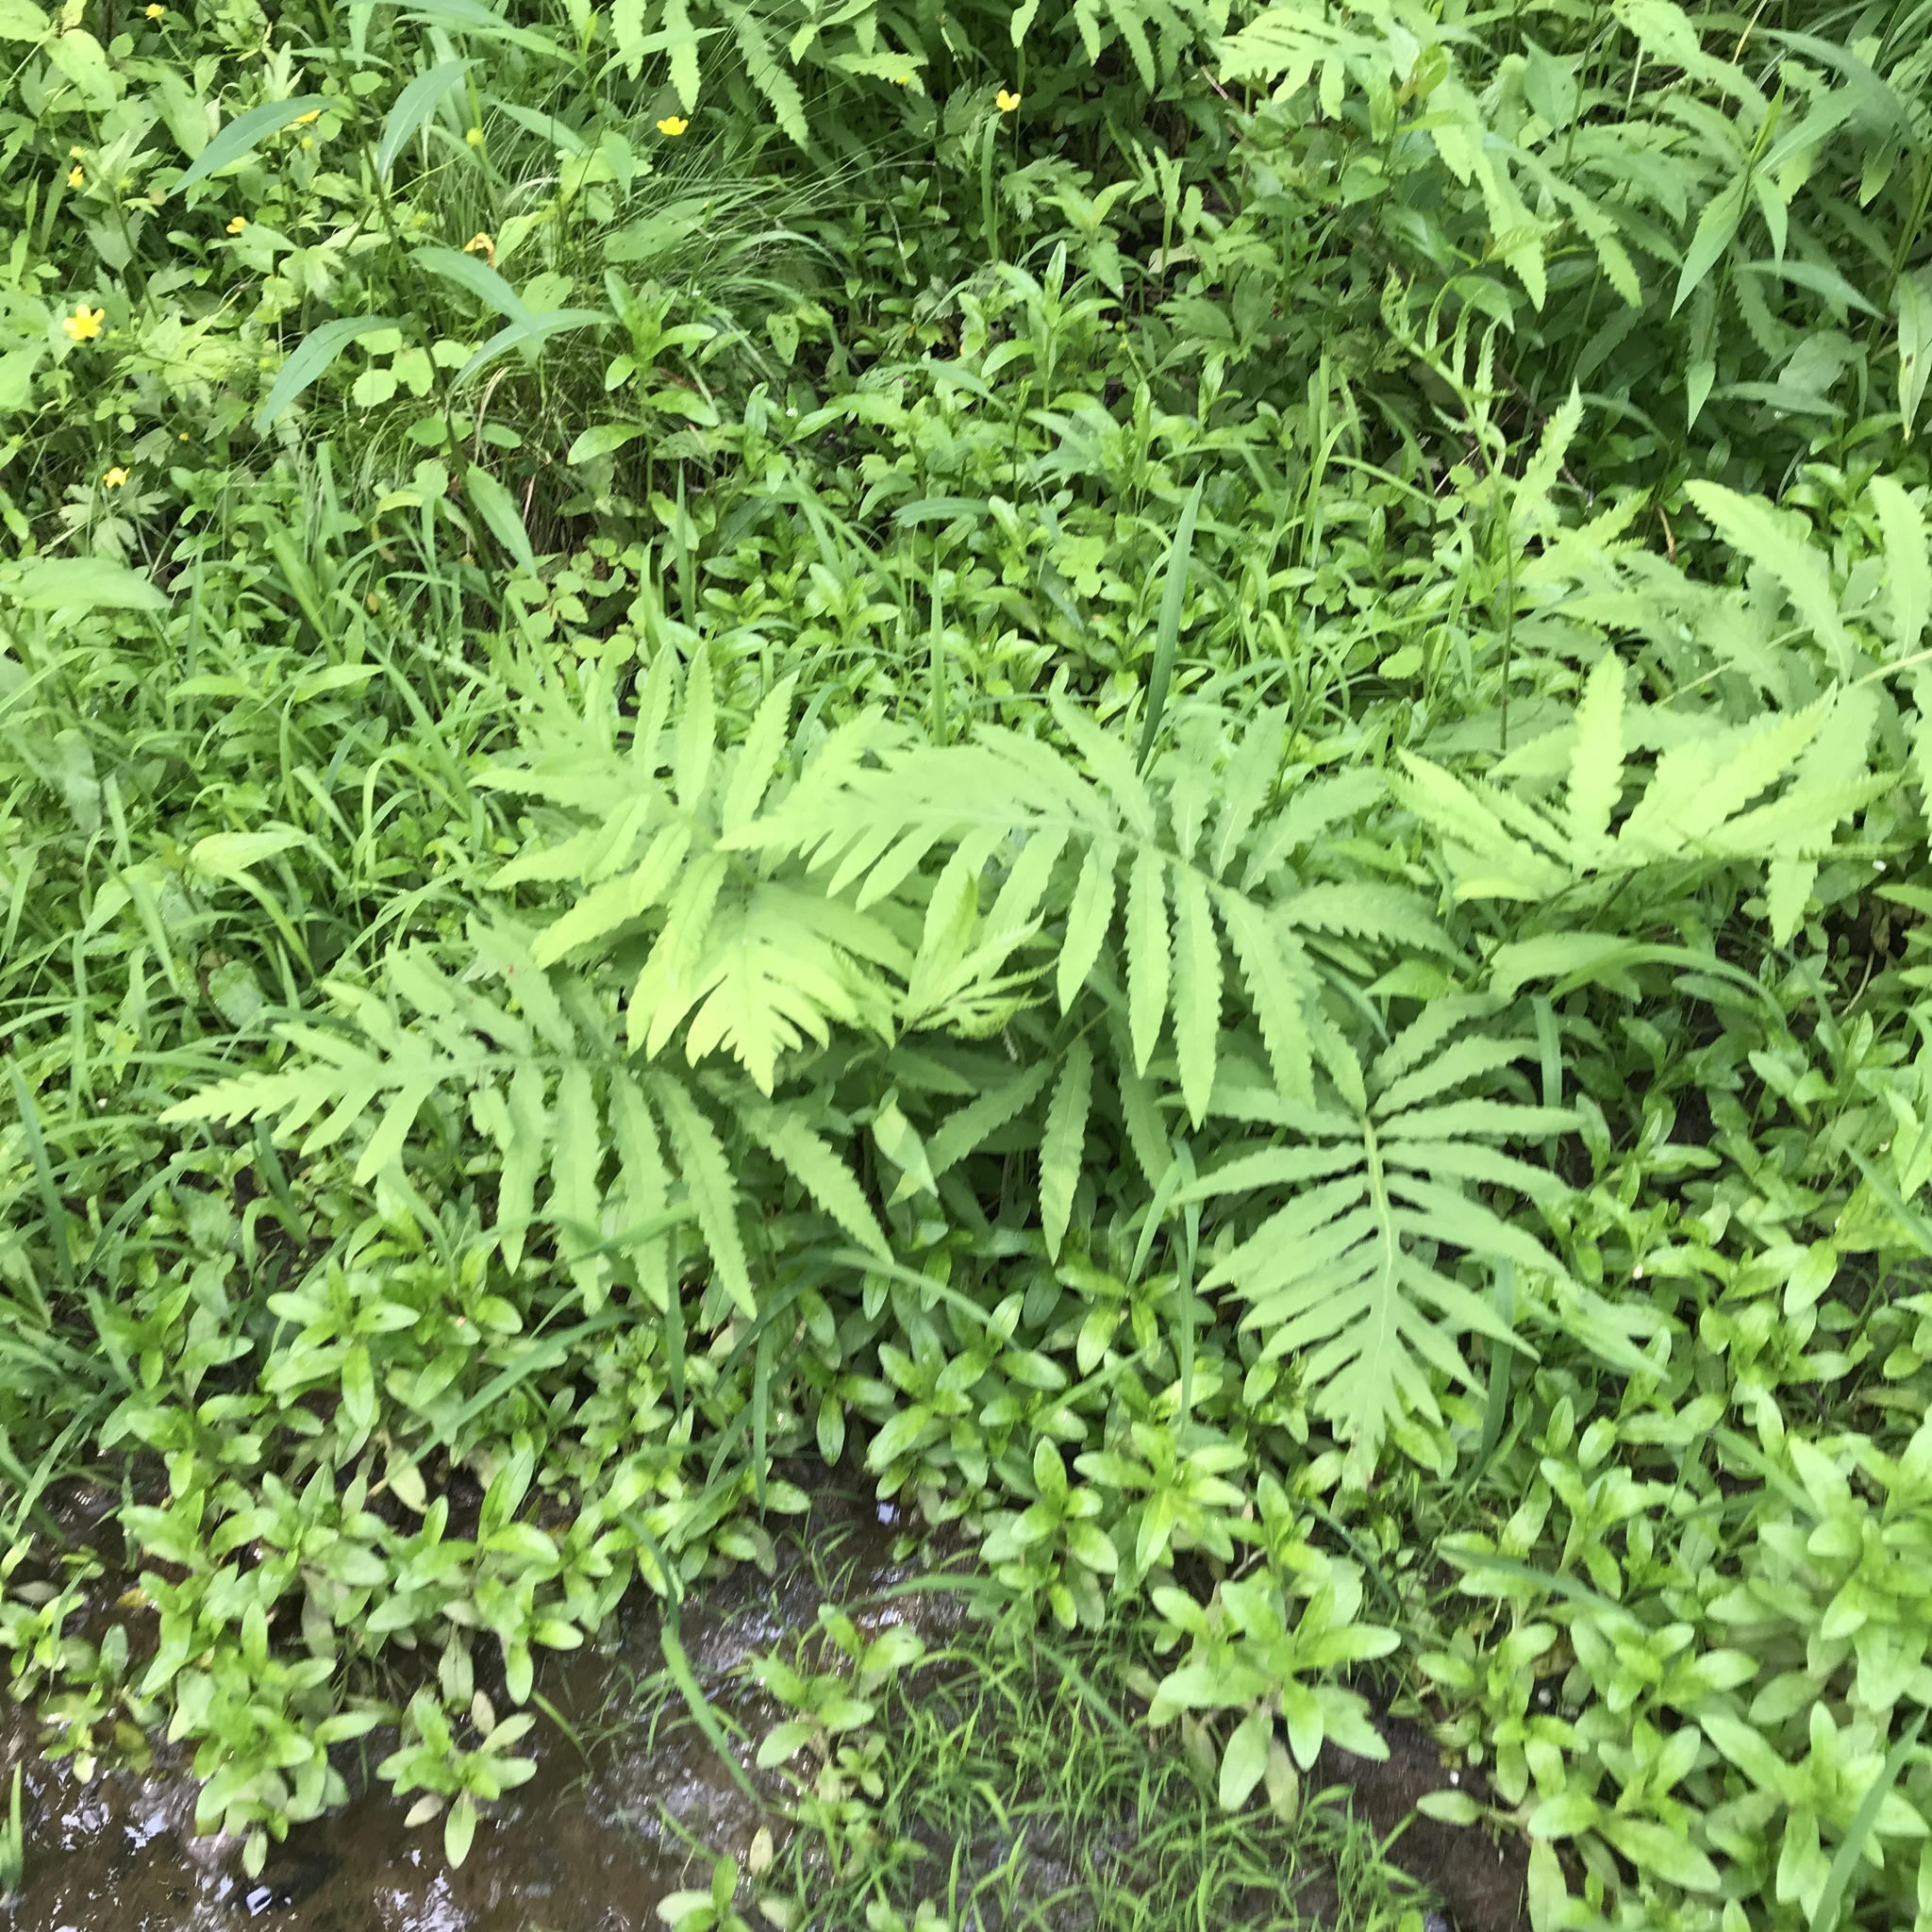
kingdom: Plantae
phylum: Tracheophyta
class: Polypodiopsida
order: Polypodiales
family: Onocleaceae
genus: Onoclea
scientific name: Onoclea sensibilis
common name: Sensitive fern
